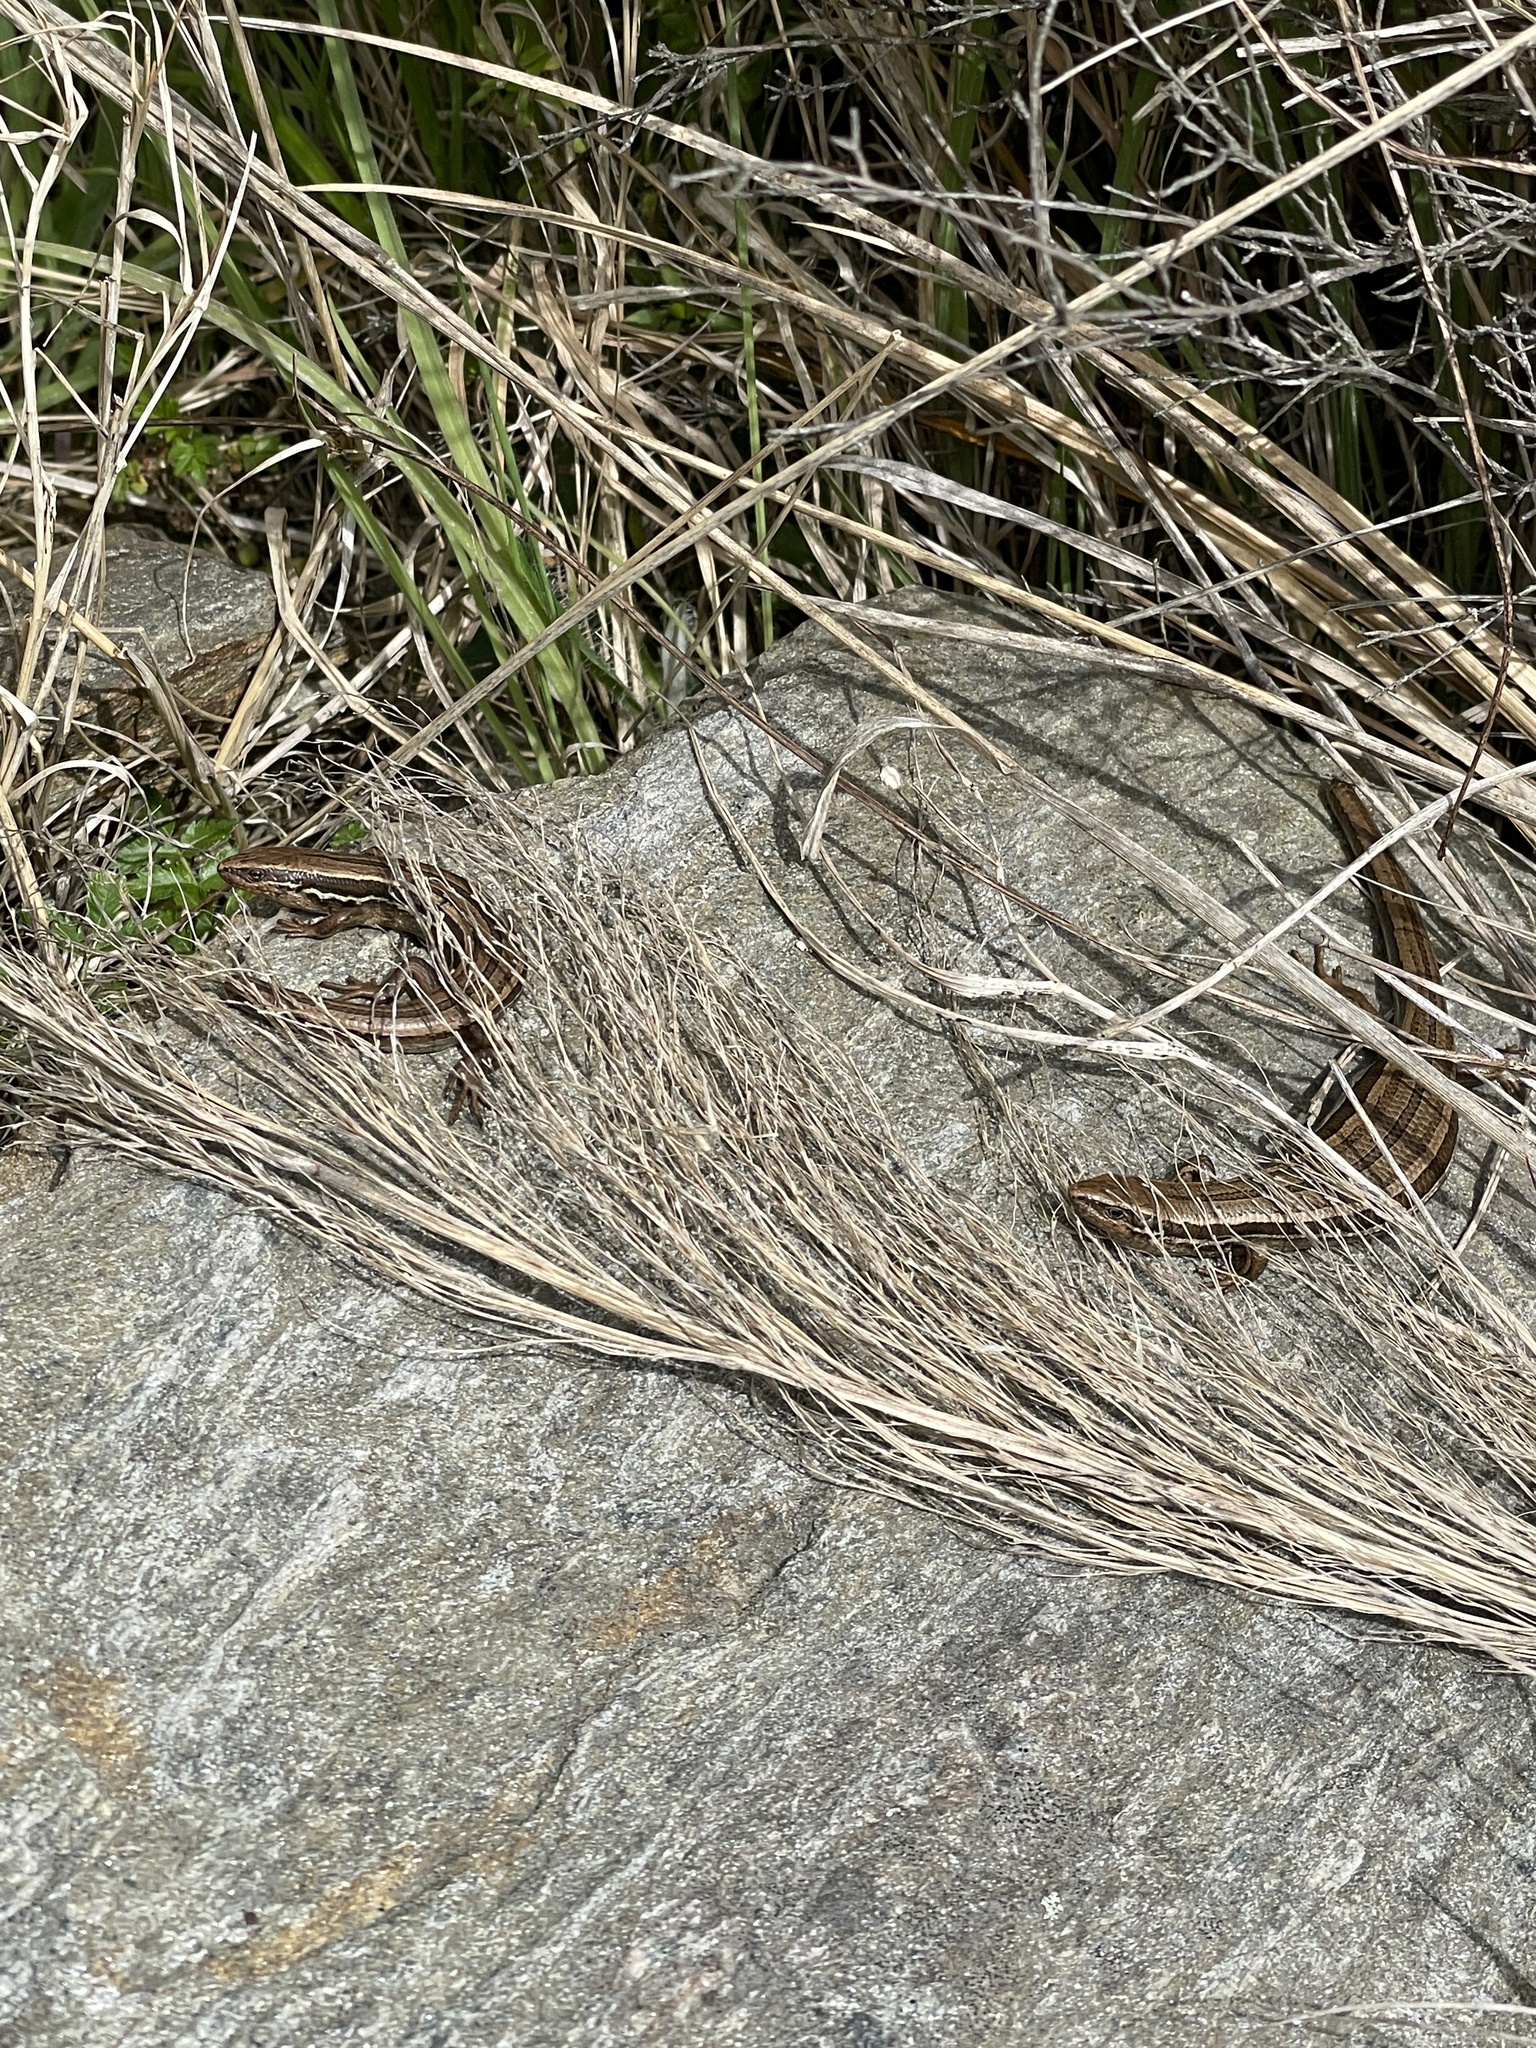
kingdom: Animalia
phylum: Chordata
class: Squamata
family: Scincidae
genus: Oligosoma
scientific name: Oligosoma polychroma
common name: Common new zealand skink
